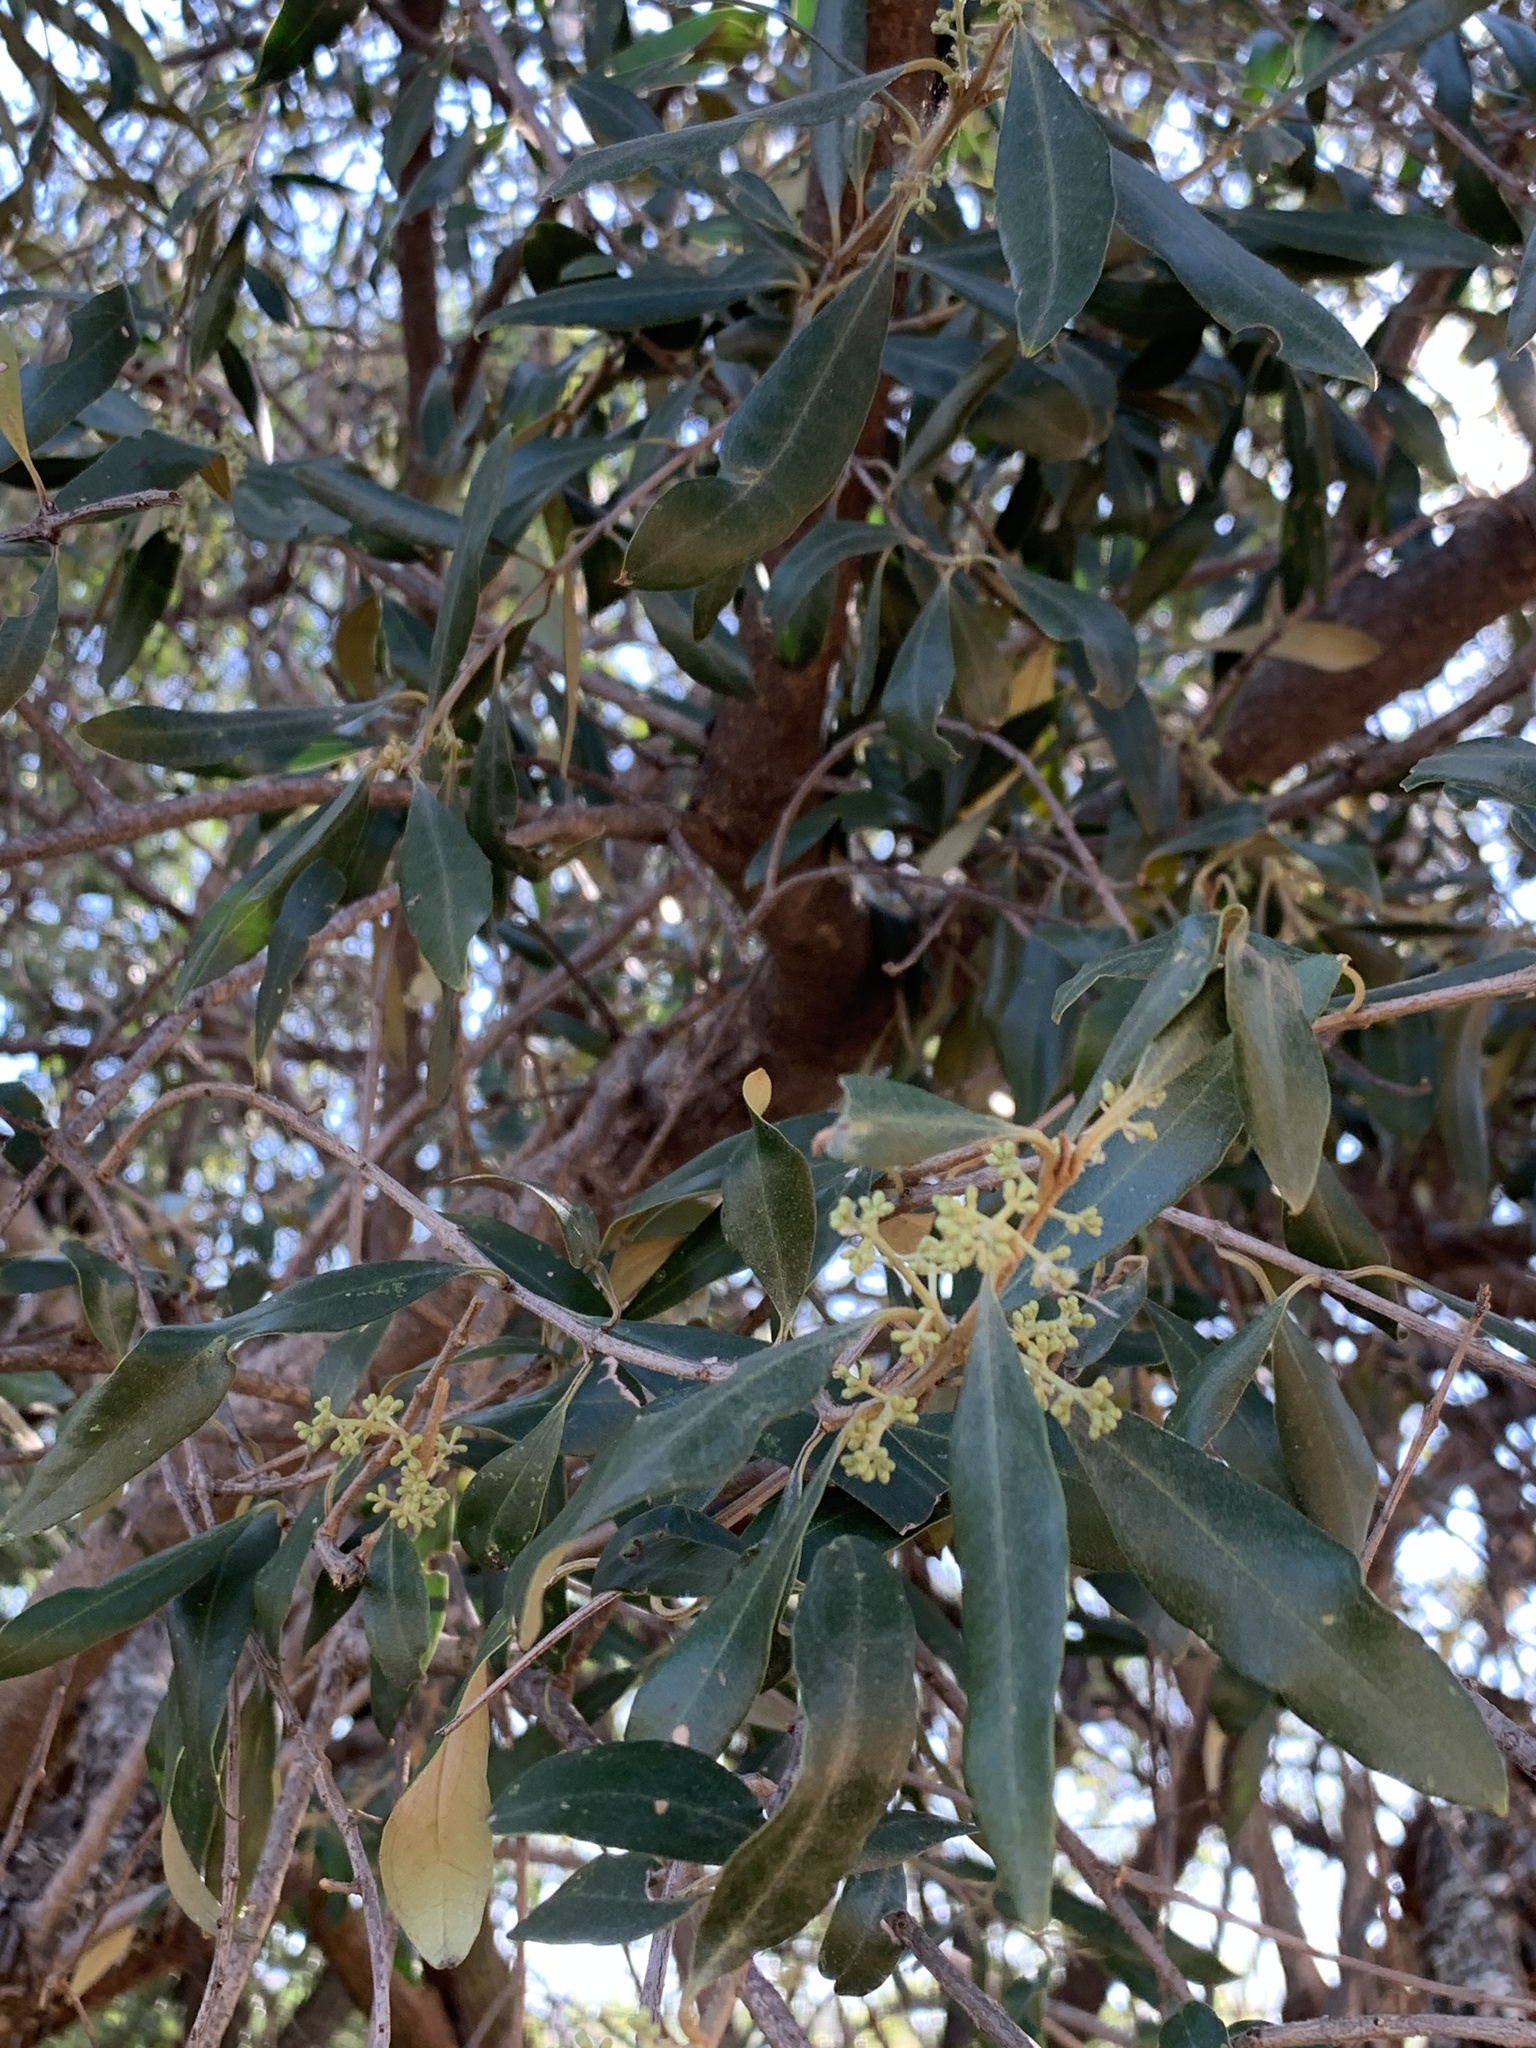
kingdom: Plantae
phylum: Tracheophyta
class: Magnoliopsida
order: Lamiales
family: Oleaceae
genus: Olea
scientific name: Olea europaea
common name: Olive
